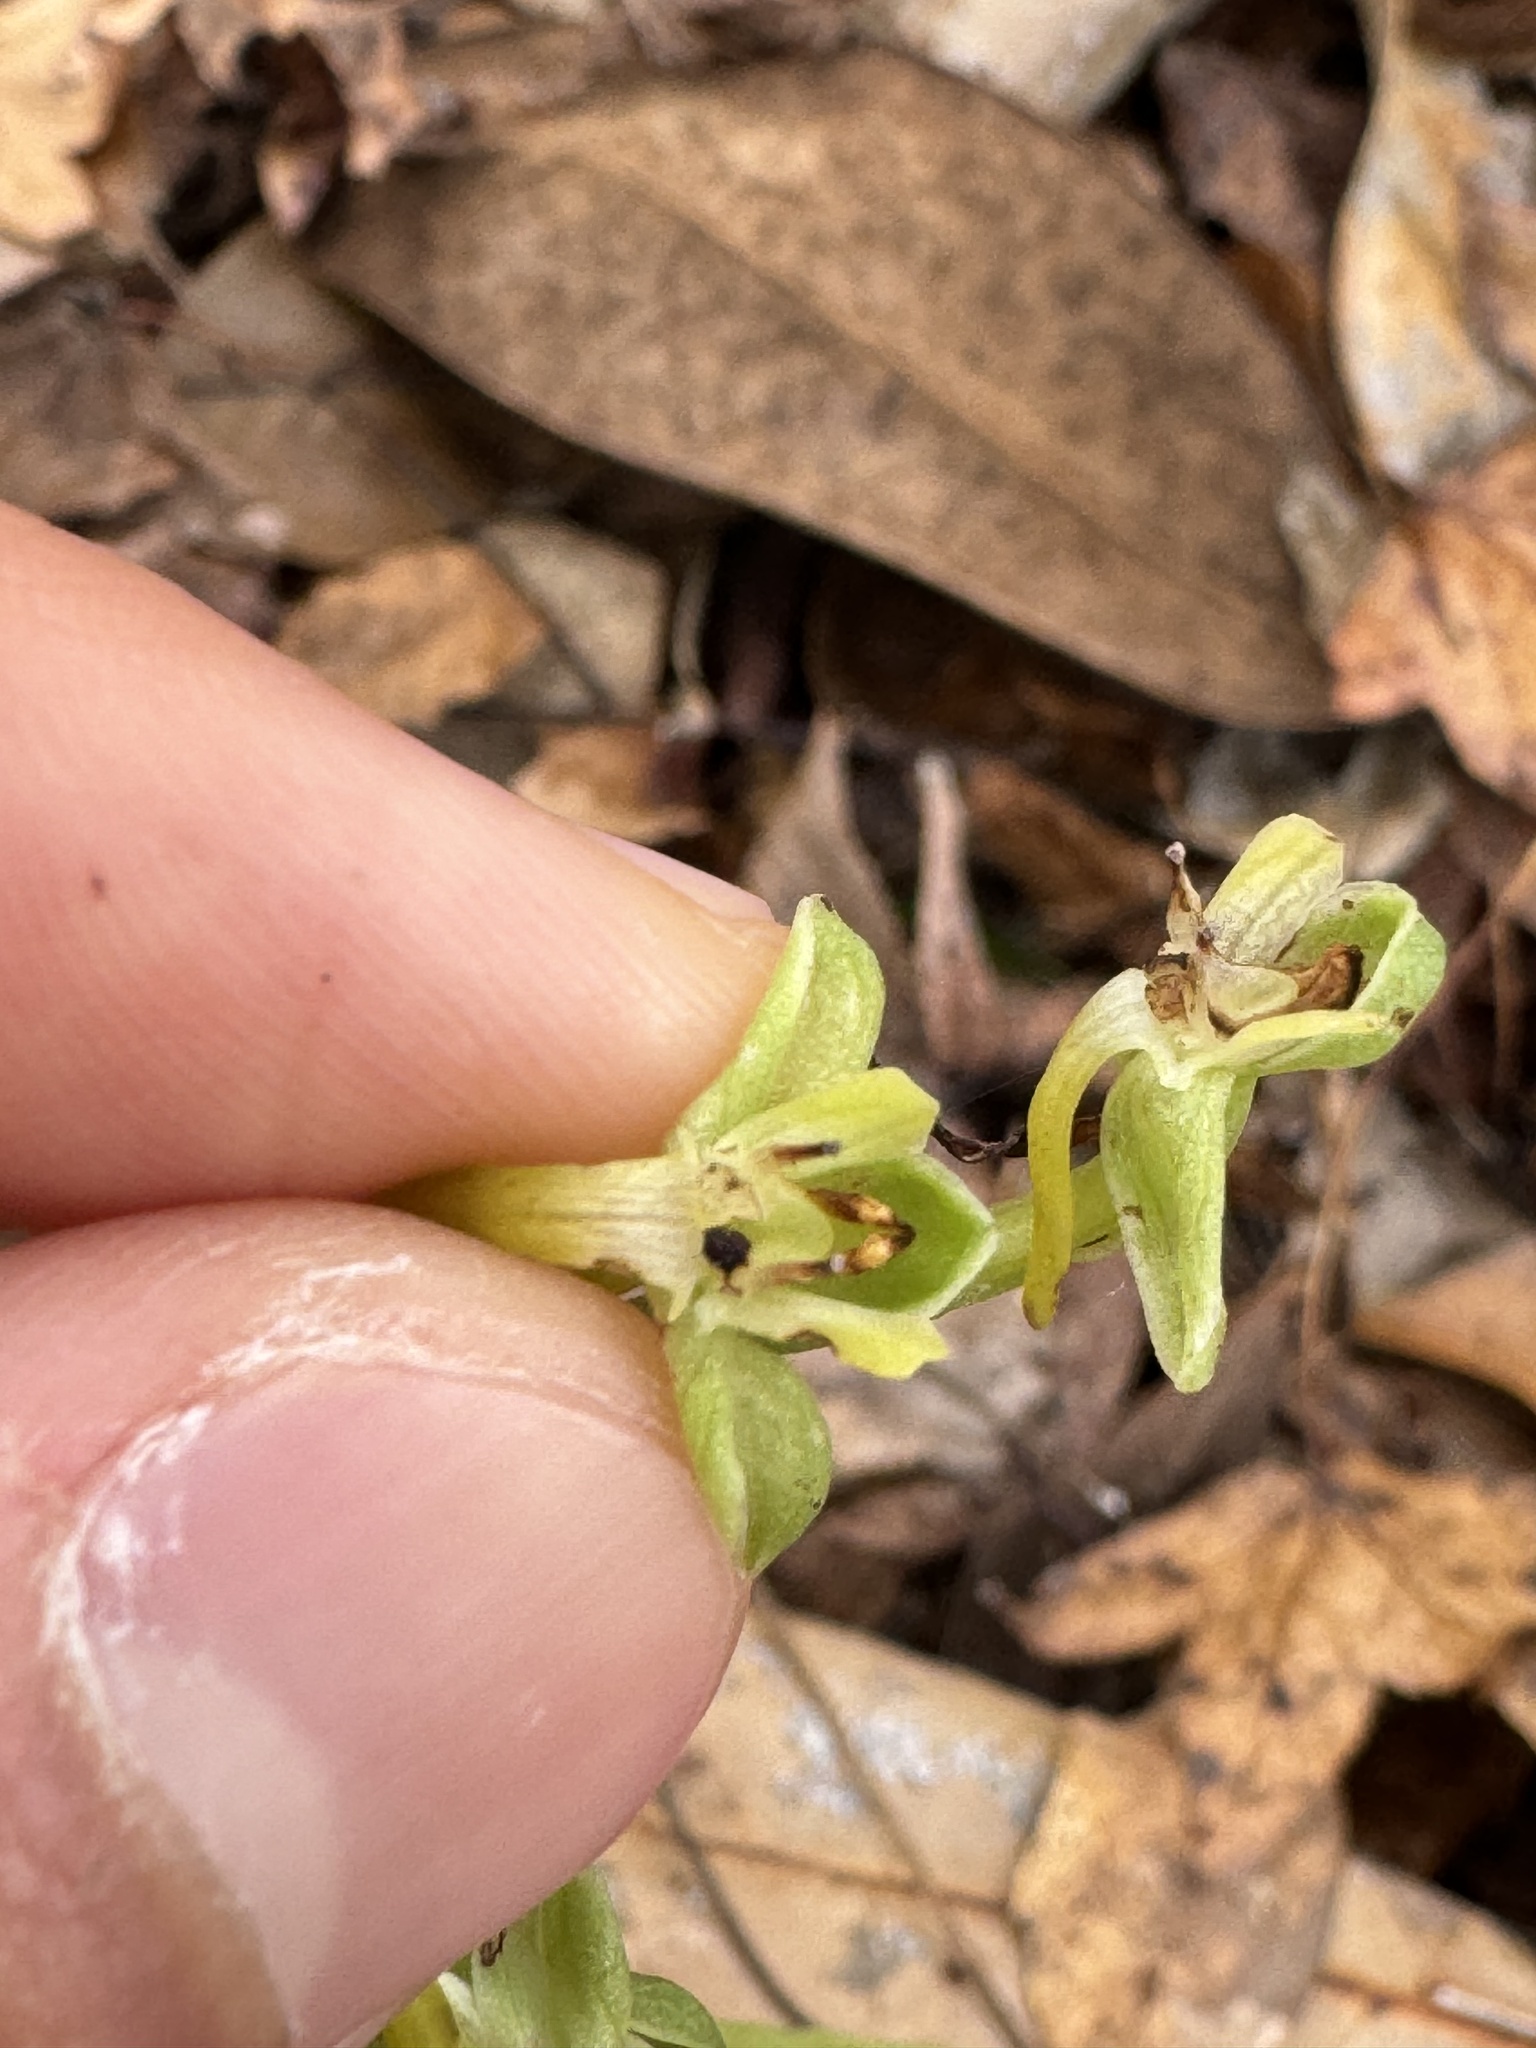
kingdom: Plantae
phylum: Tracheophyta
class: Liliopsida
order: Asparagales
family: Orchidaceae
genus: Habenaria
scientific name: Habenaria floribunda
